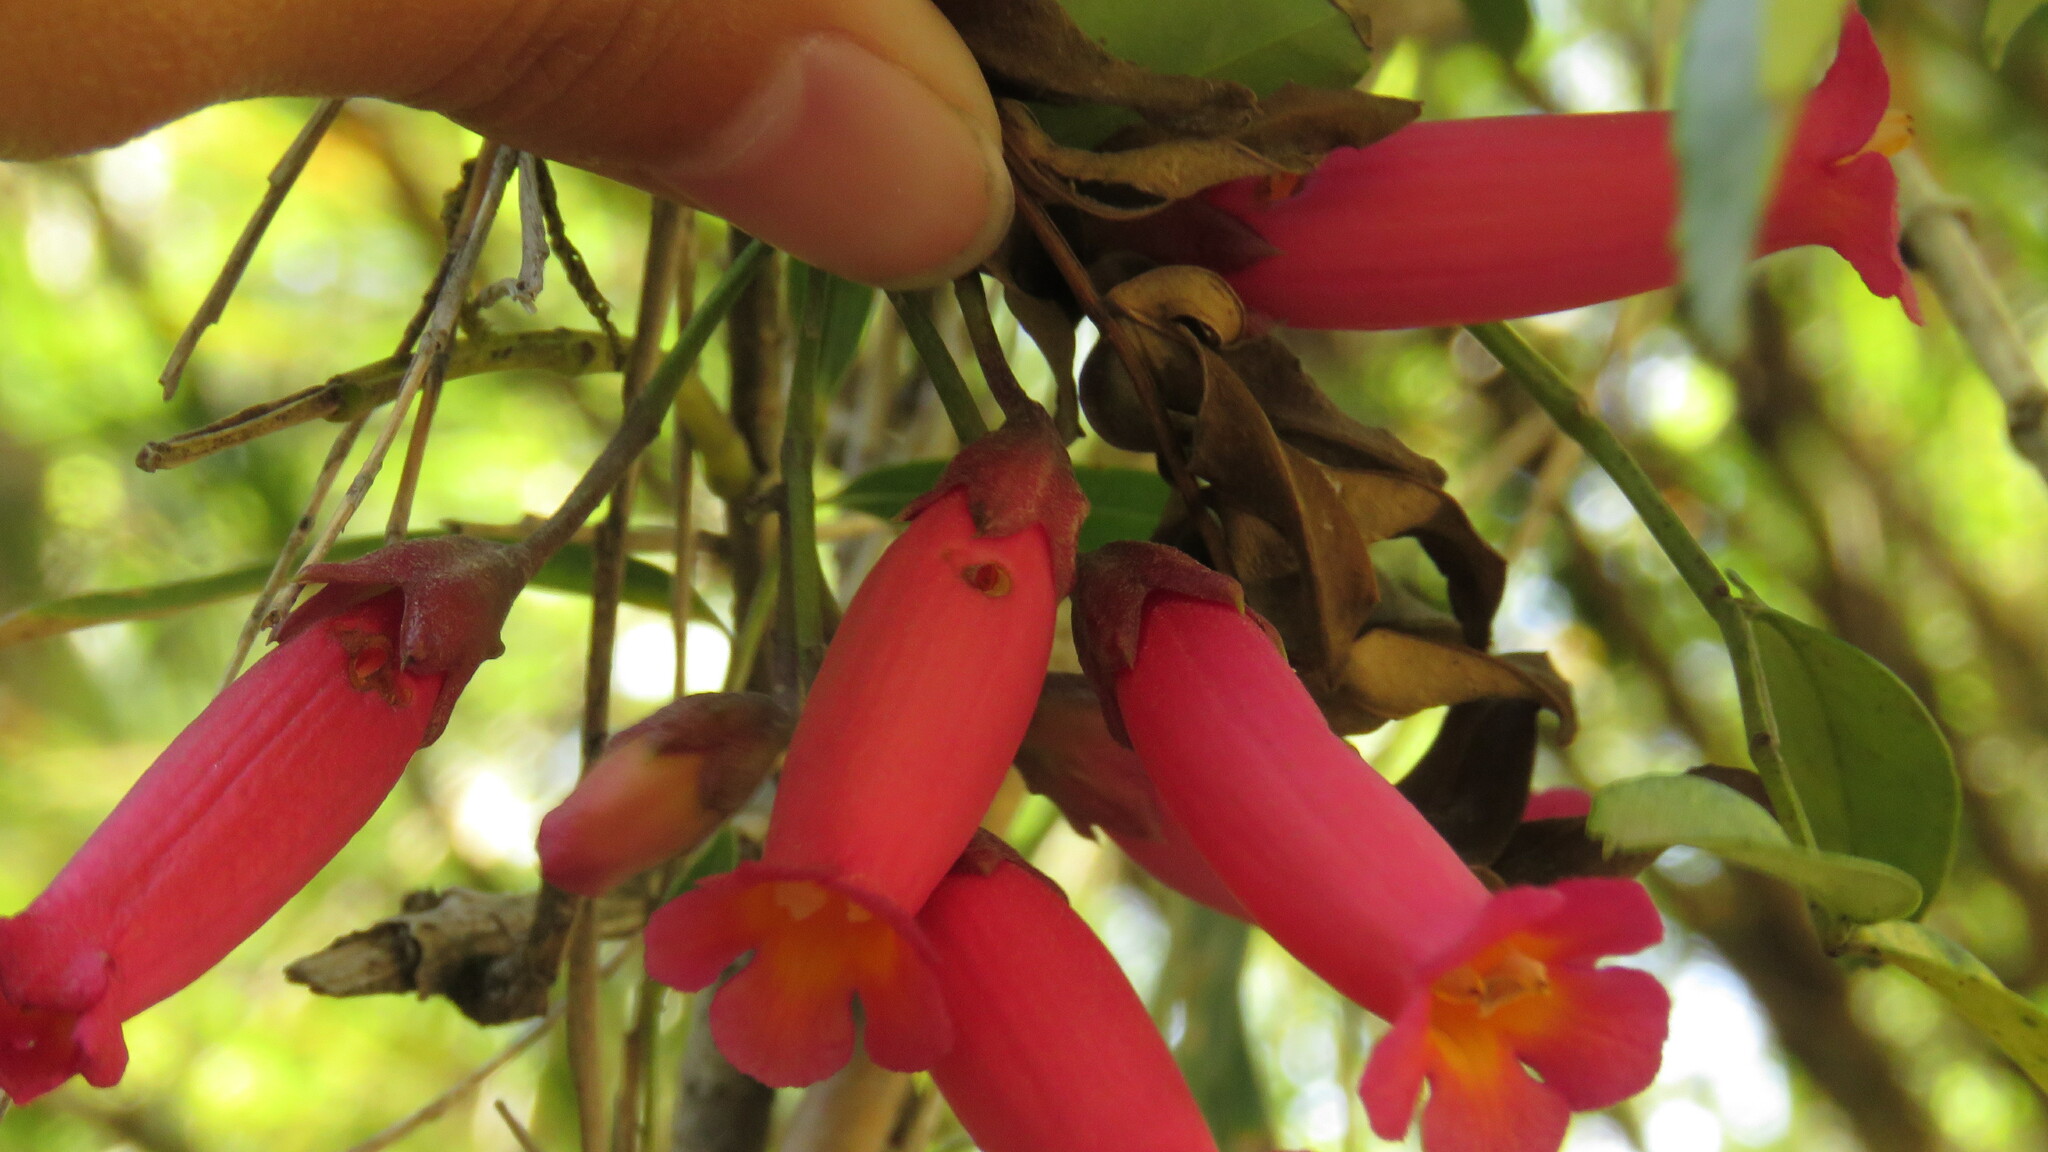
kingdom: Plantae
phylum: Tracheophyta
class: Magnoliopsida
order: Lamiales
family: Bignoniaceae
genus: Campsidium
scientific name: Campsidium valdivianum
